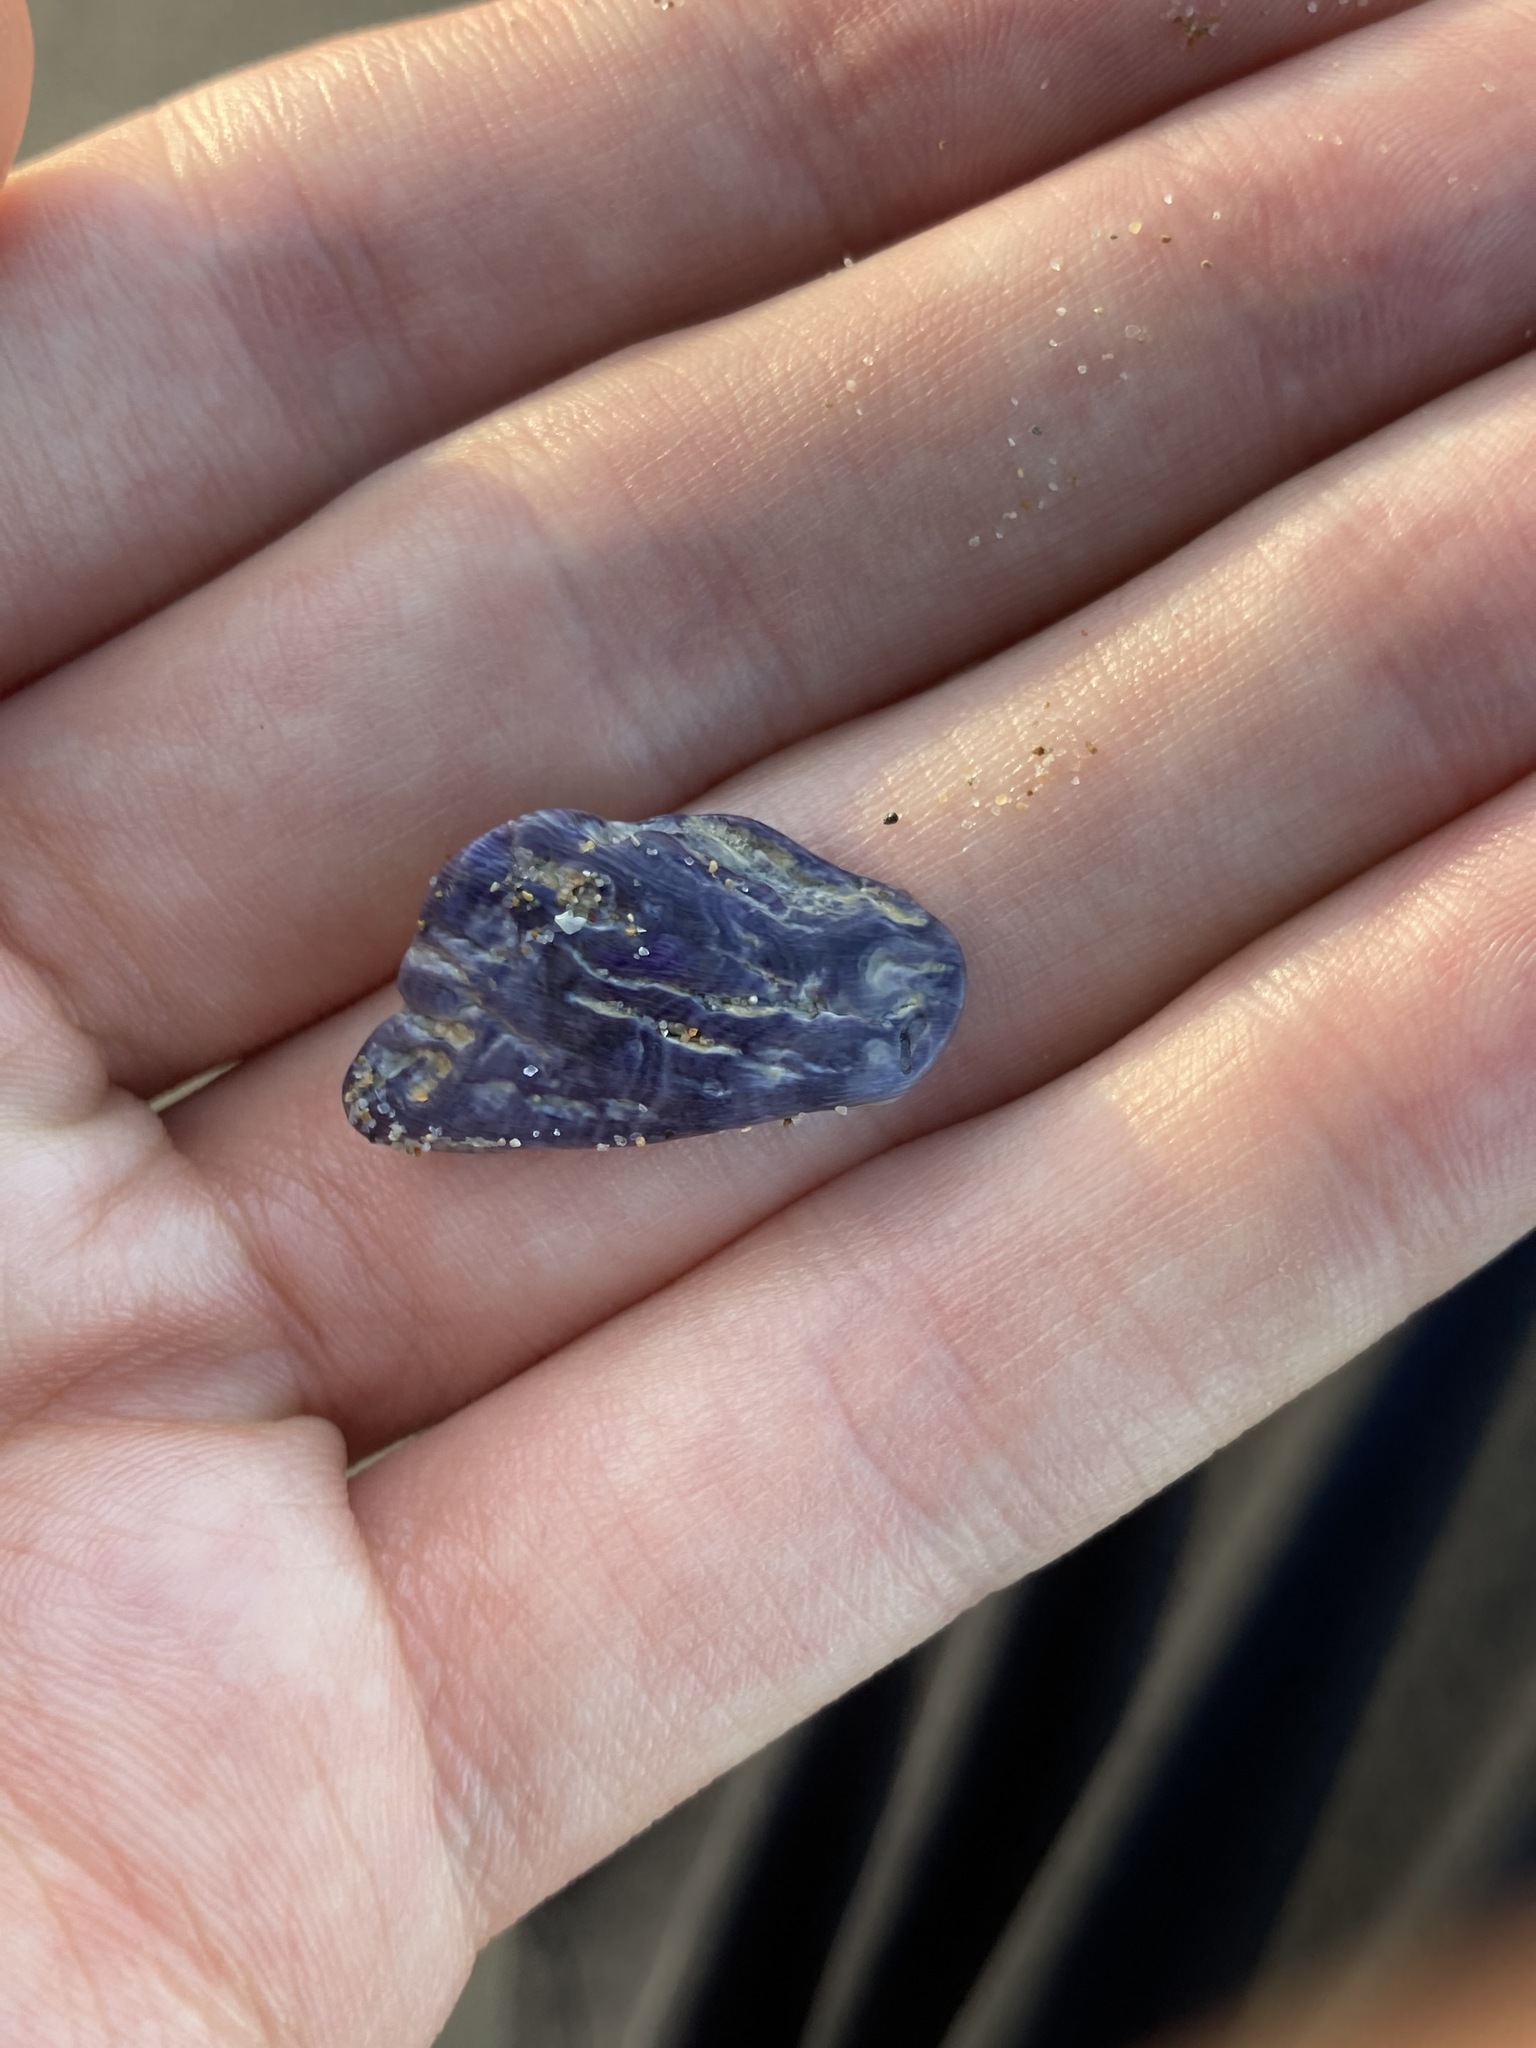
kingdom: Animalia
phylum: Arthropoda
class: Maxillopoda
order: Sessilia
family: Austrobalanidae
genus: Austrobalanus
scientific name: Austrobalanus imperator
